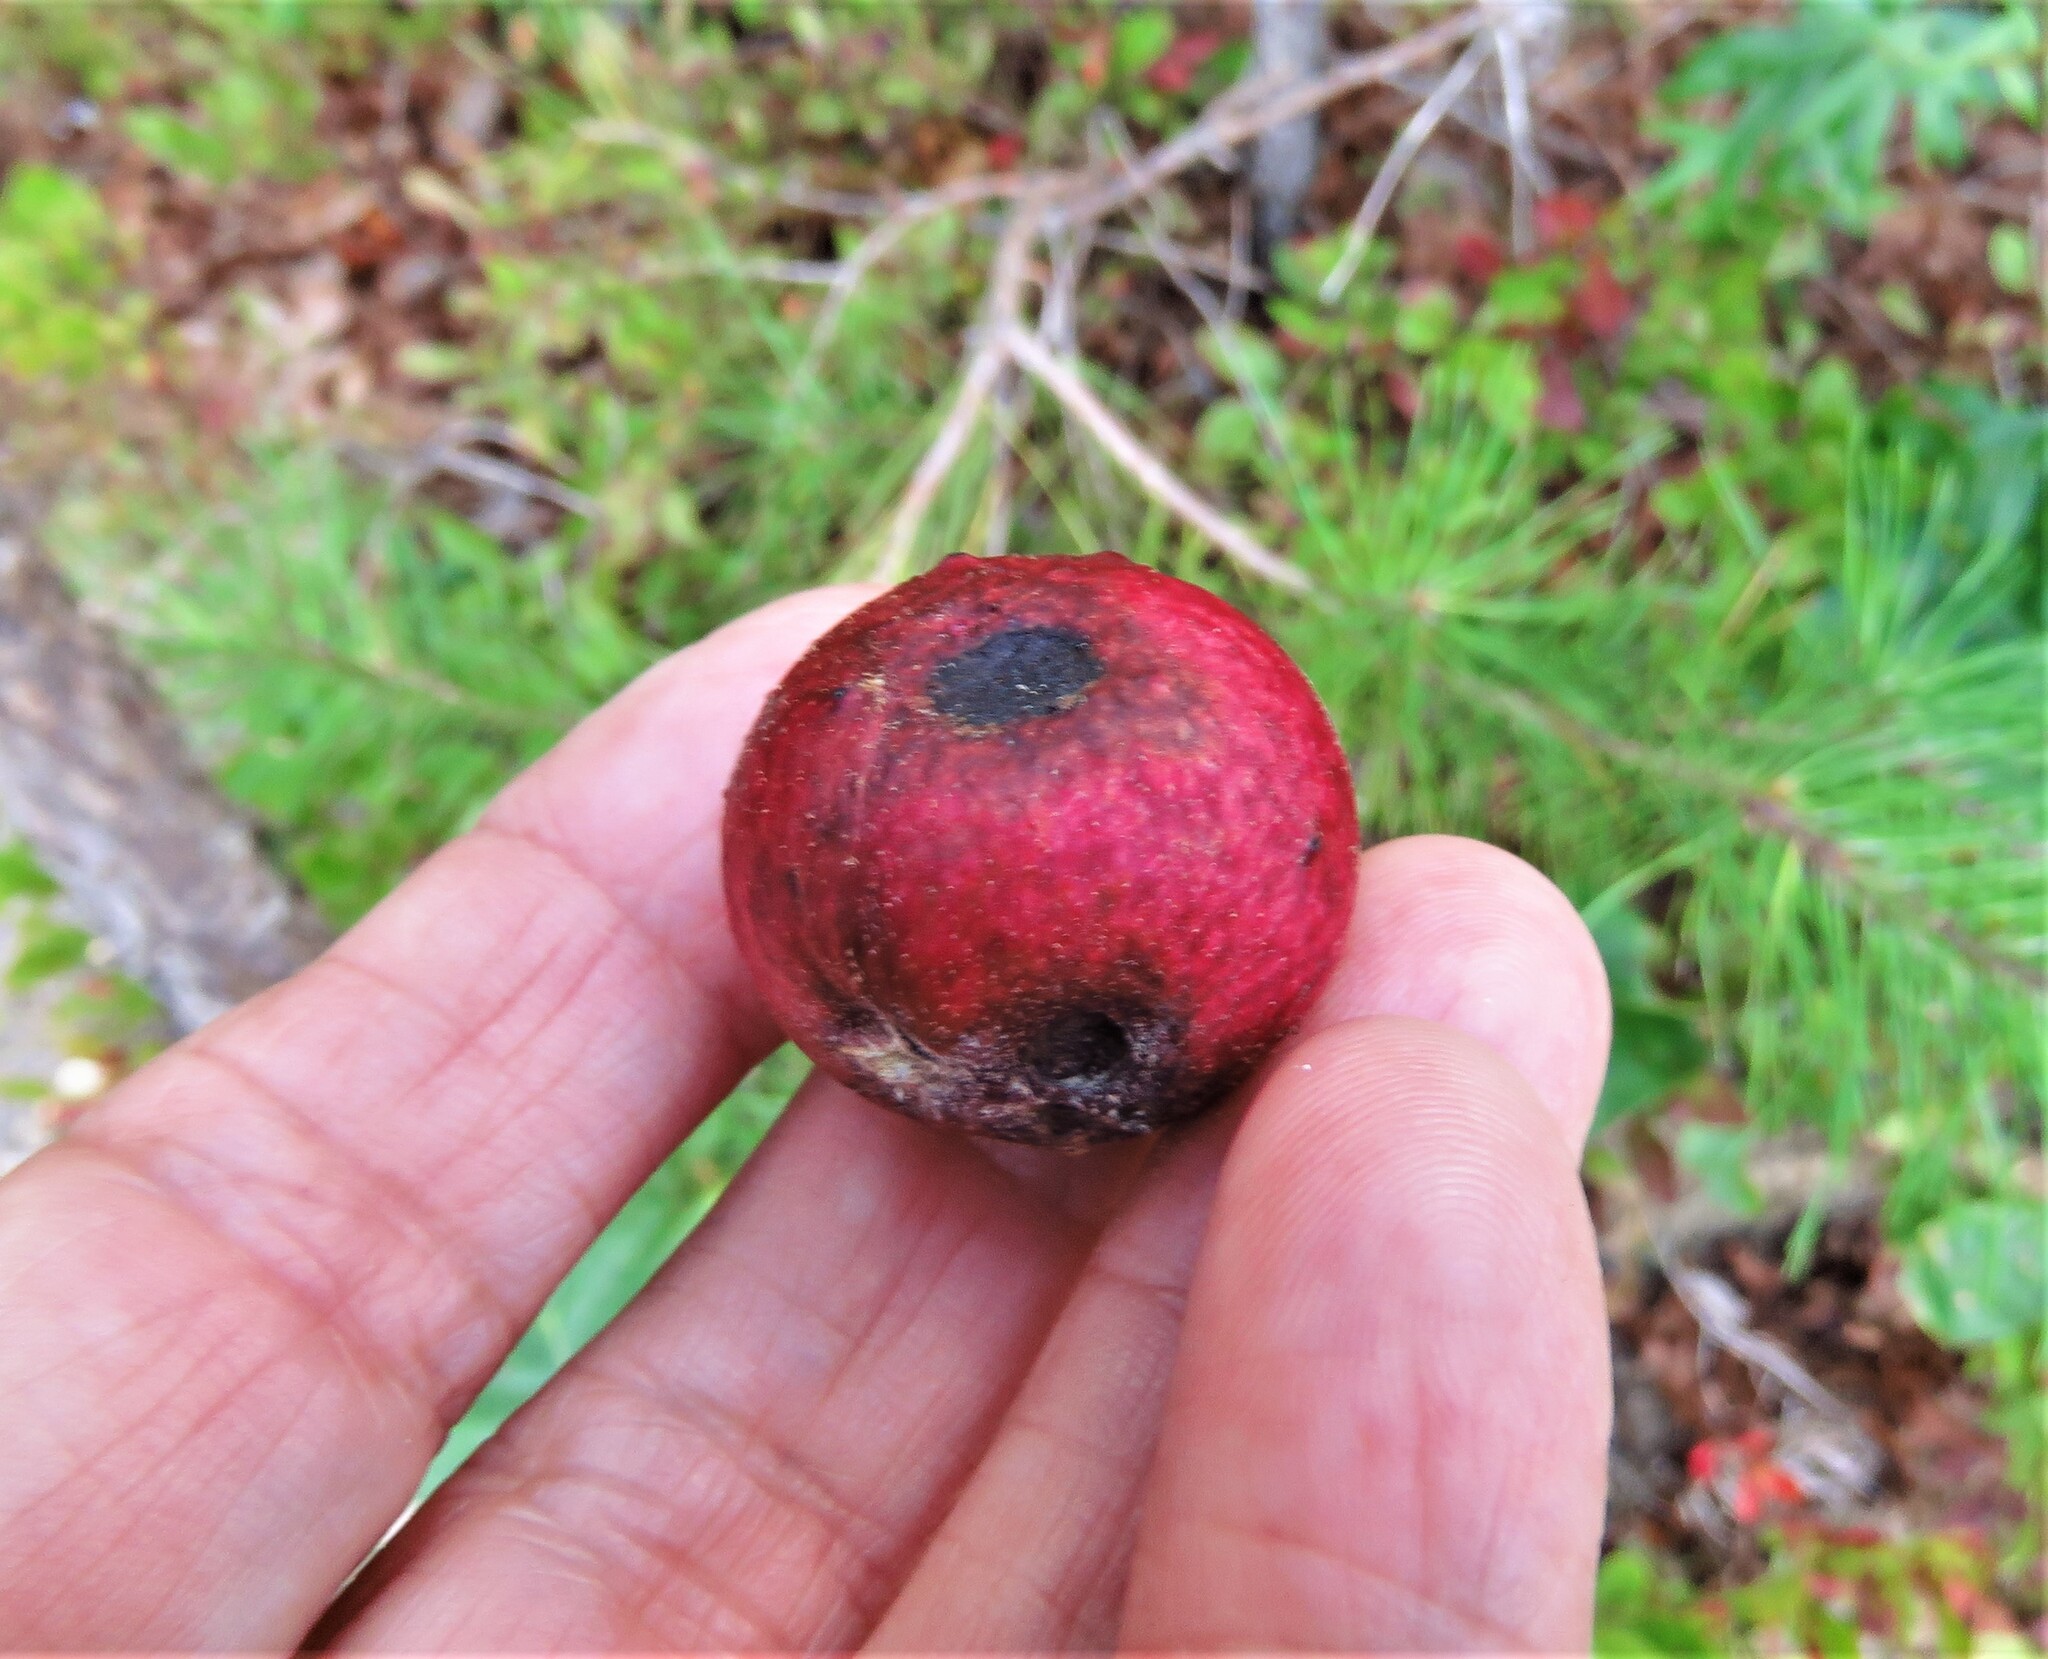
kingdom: Animalia
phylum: Arthropoda
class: Insecta
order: Hymenoptera
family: Cynipidae
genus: Amphibolips
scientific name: Amphibolips
